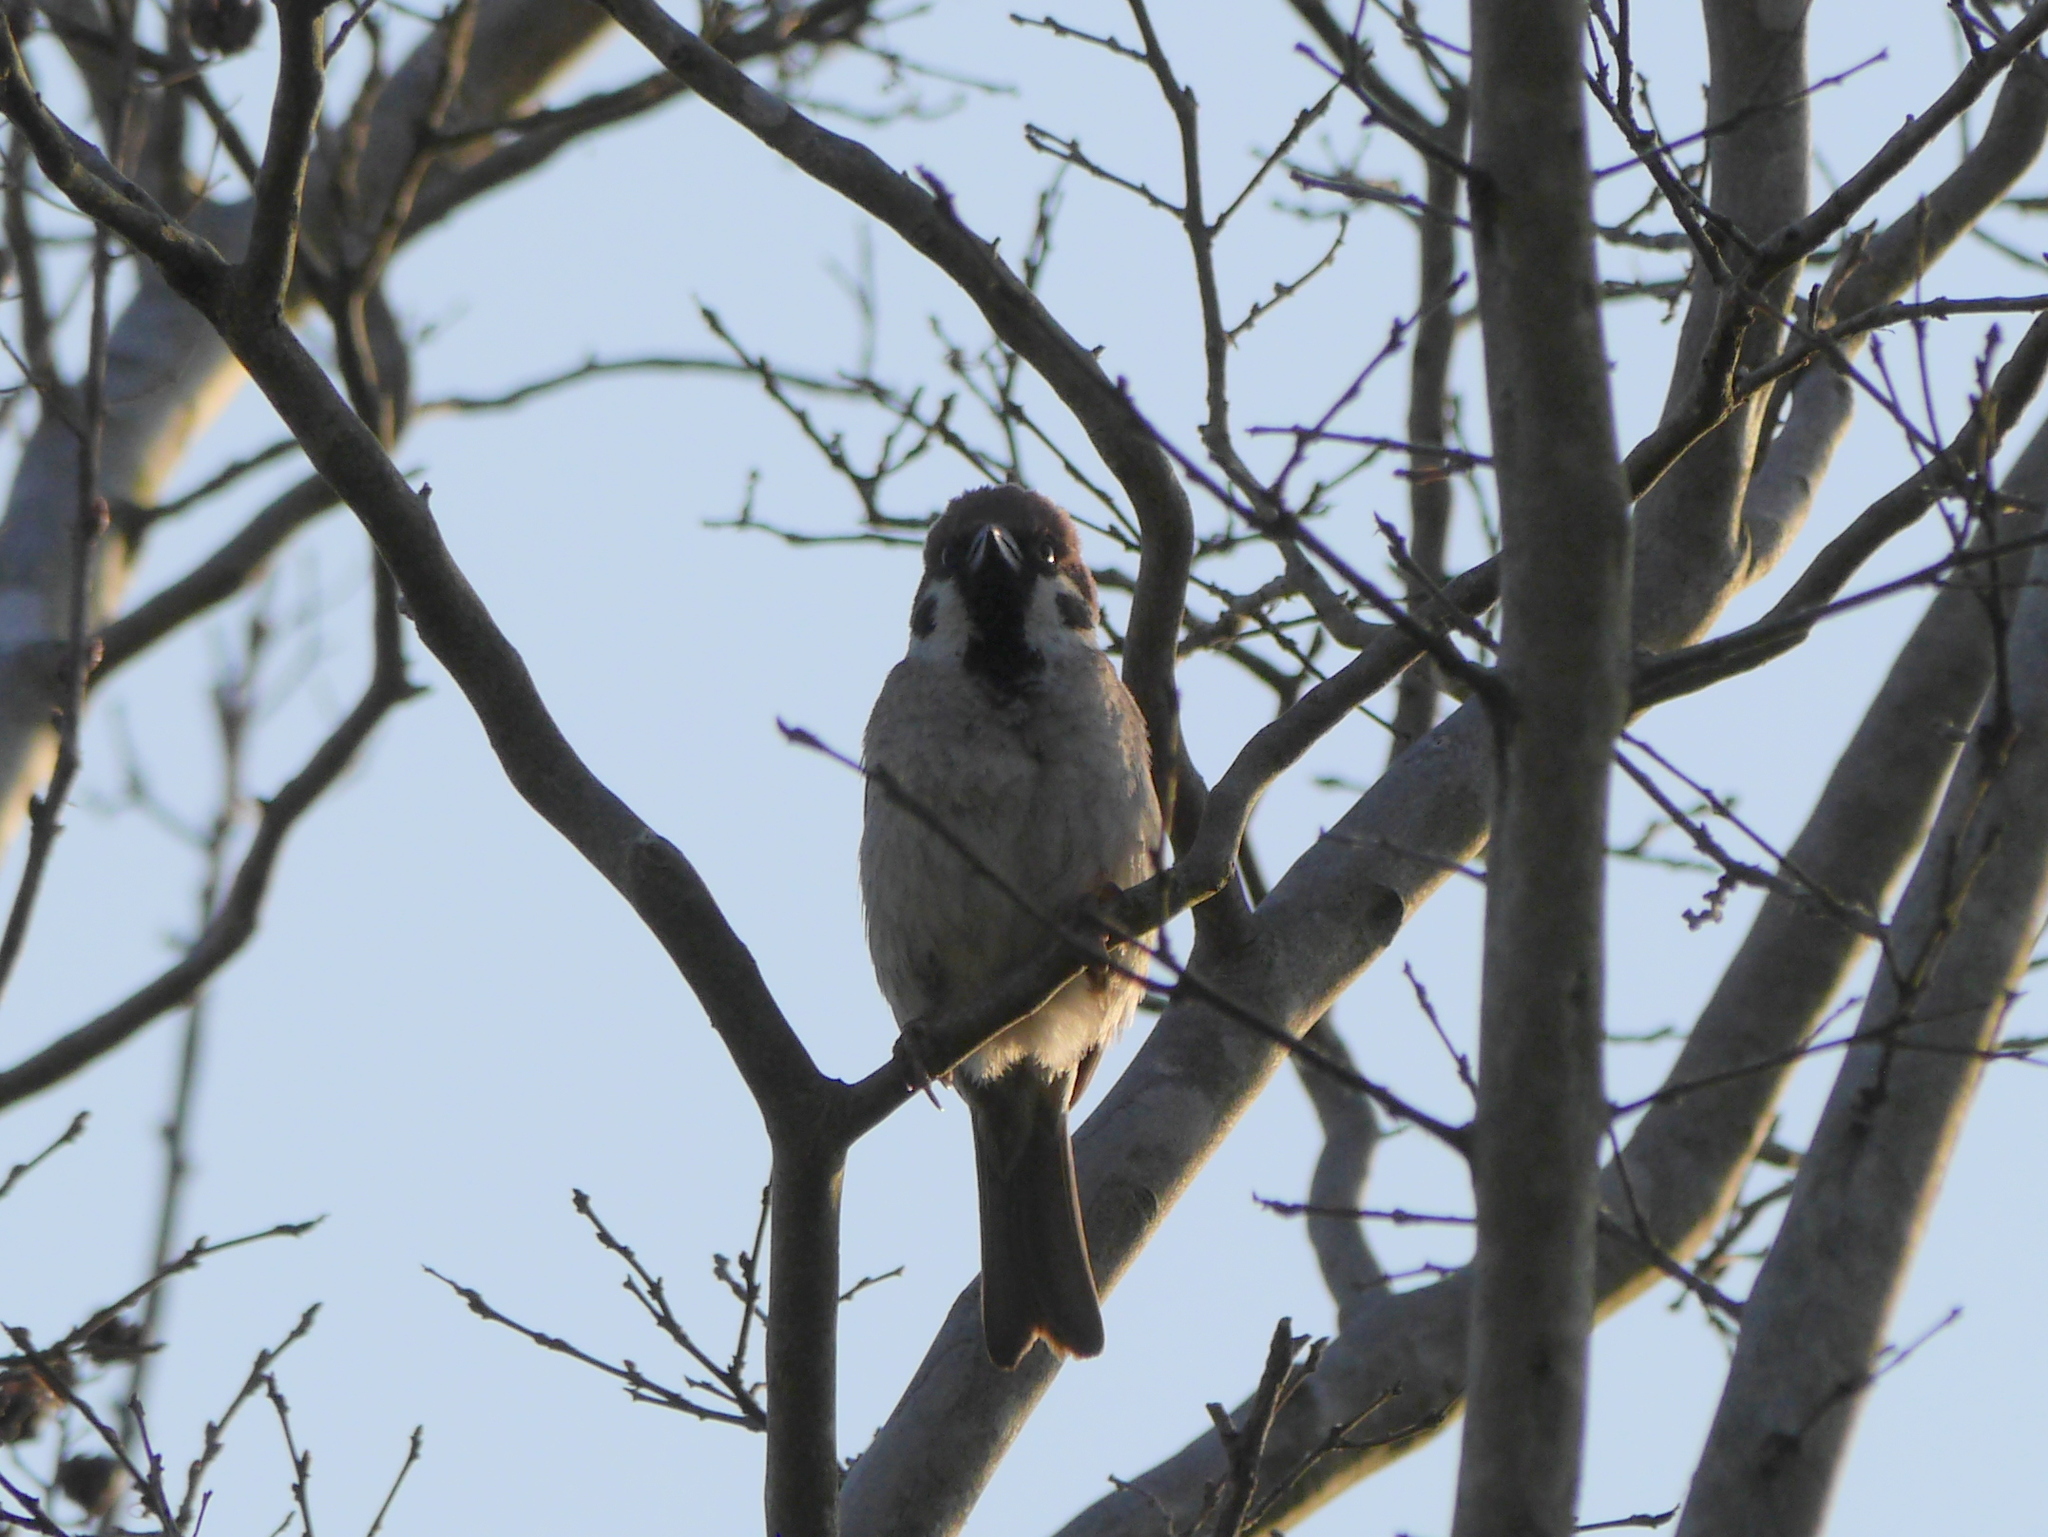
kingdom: Animalia
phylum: Chordata
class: Aves
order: Passeriformes
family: Passeridae
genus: Passer
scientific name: Passer montanus
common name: Eurasian tree sparrow
